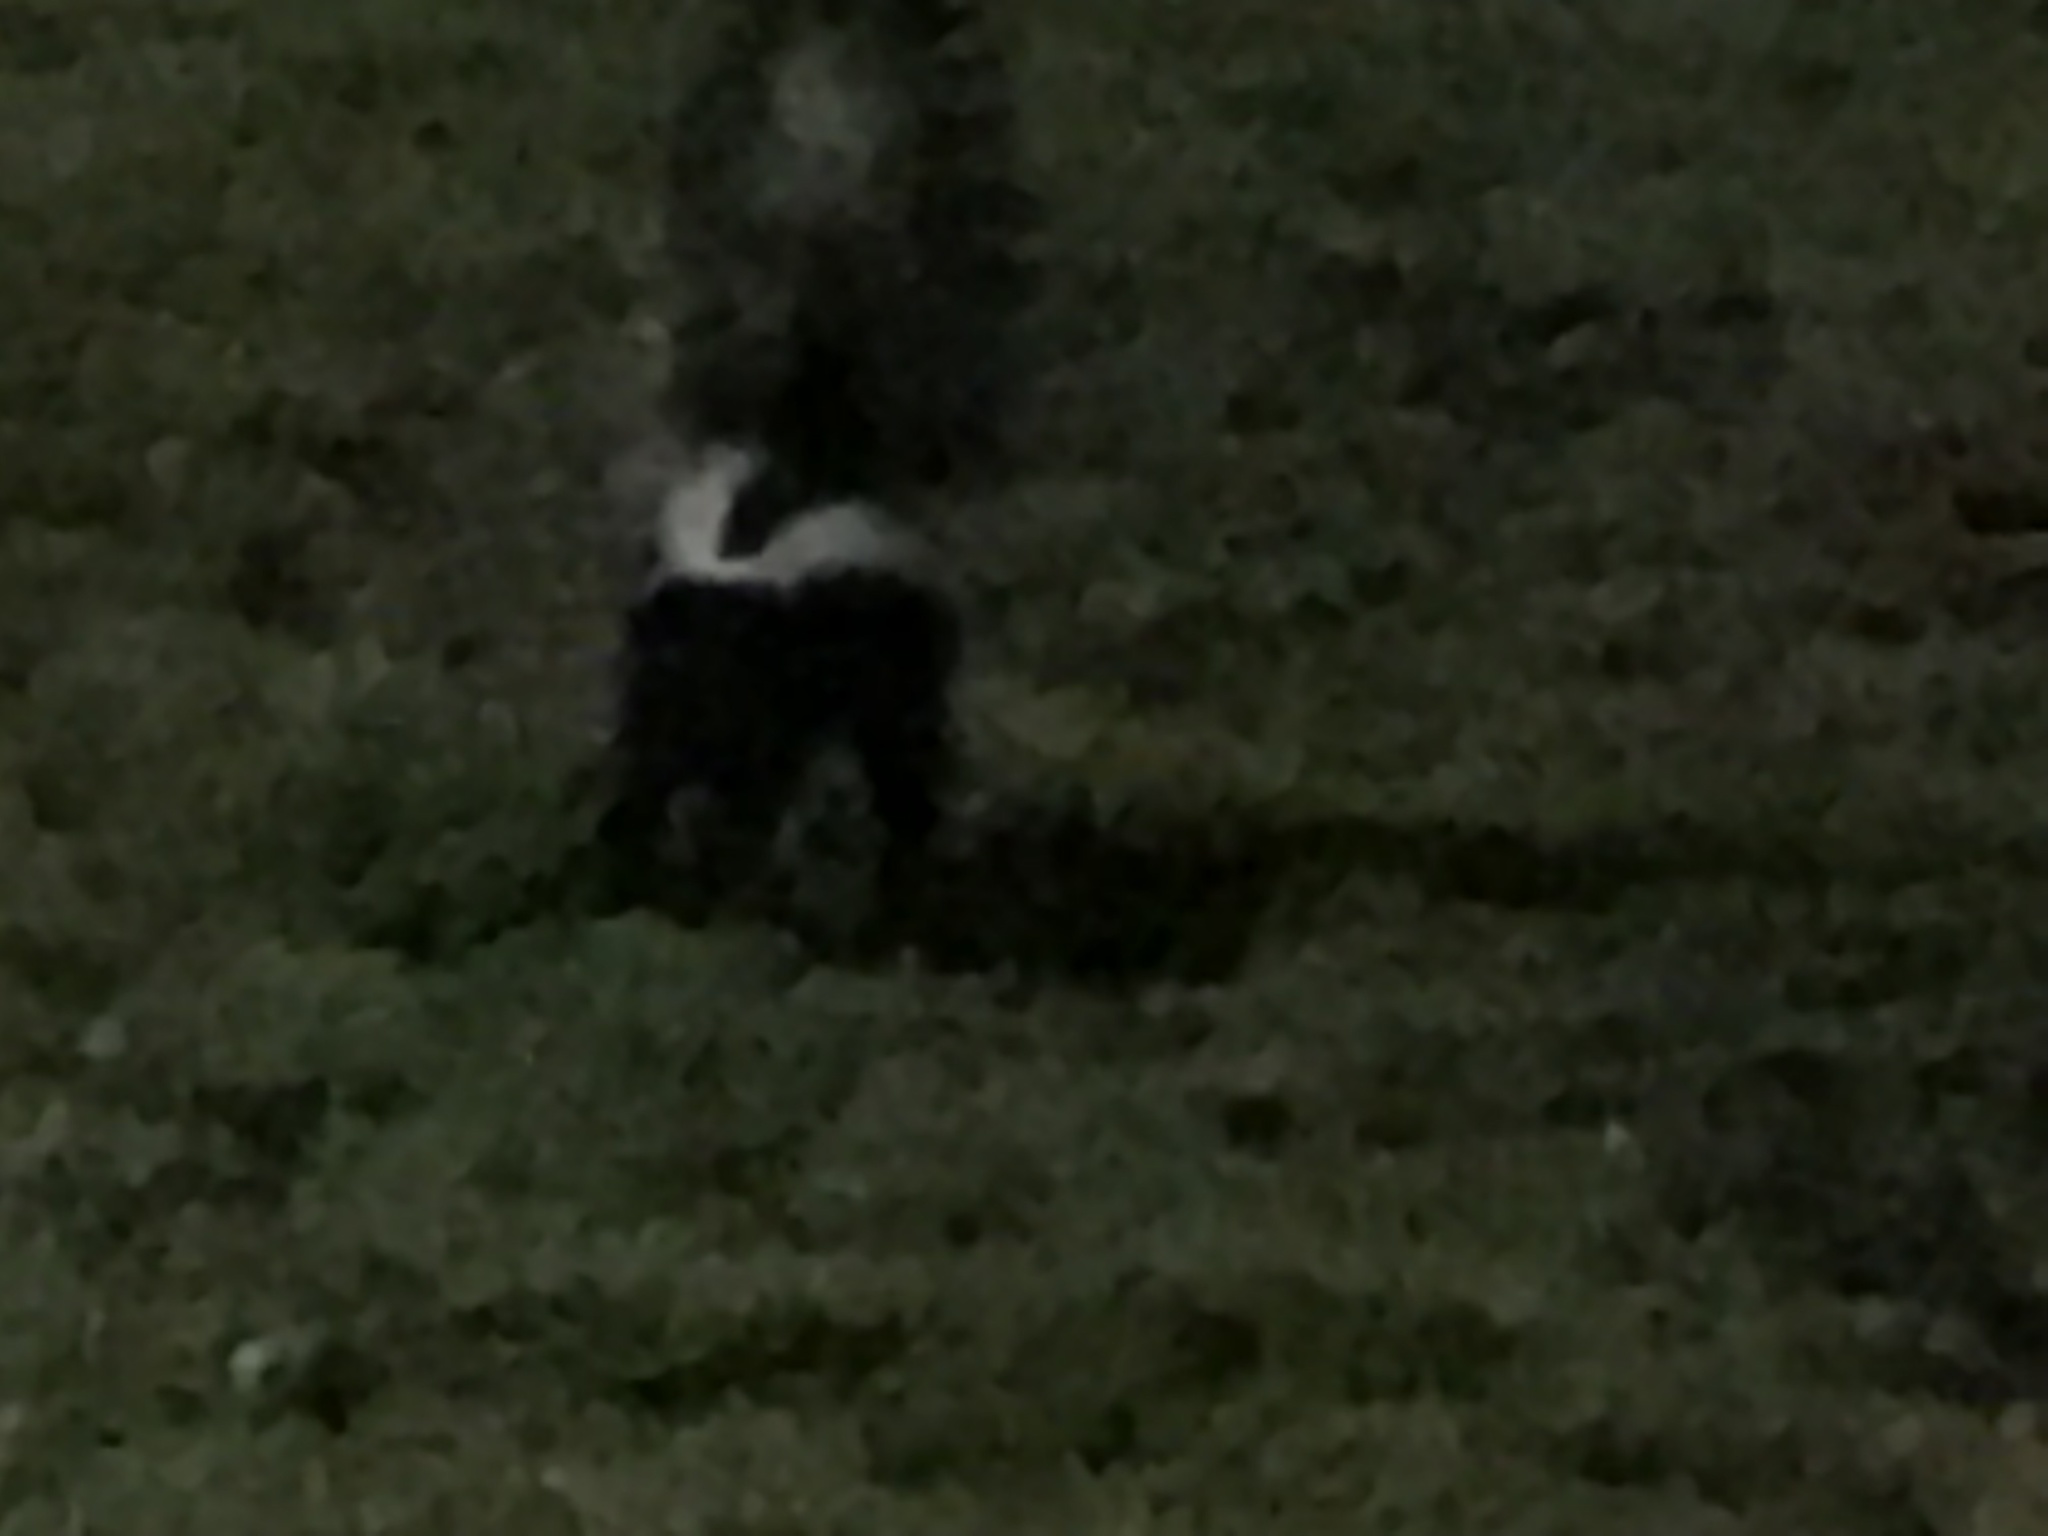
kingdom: Animalia
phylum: Chordata
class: Mammalia
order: Carnivora
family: Mephitidae
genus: Mephitis
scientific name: Mephitis mephitis
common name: Striped skunk
